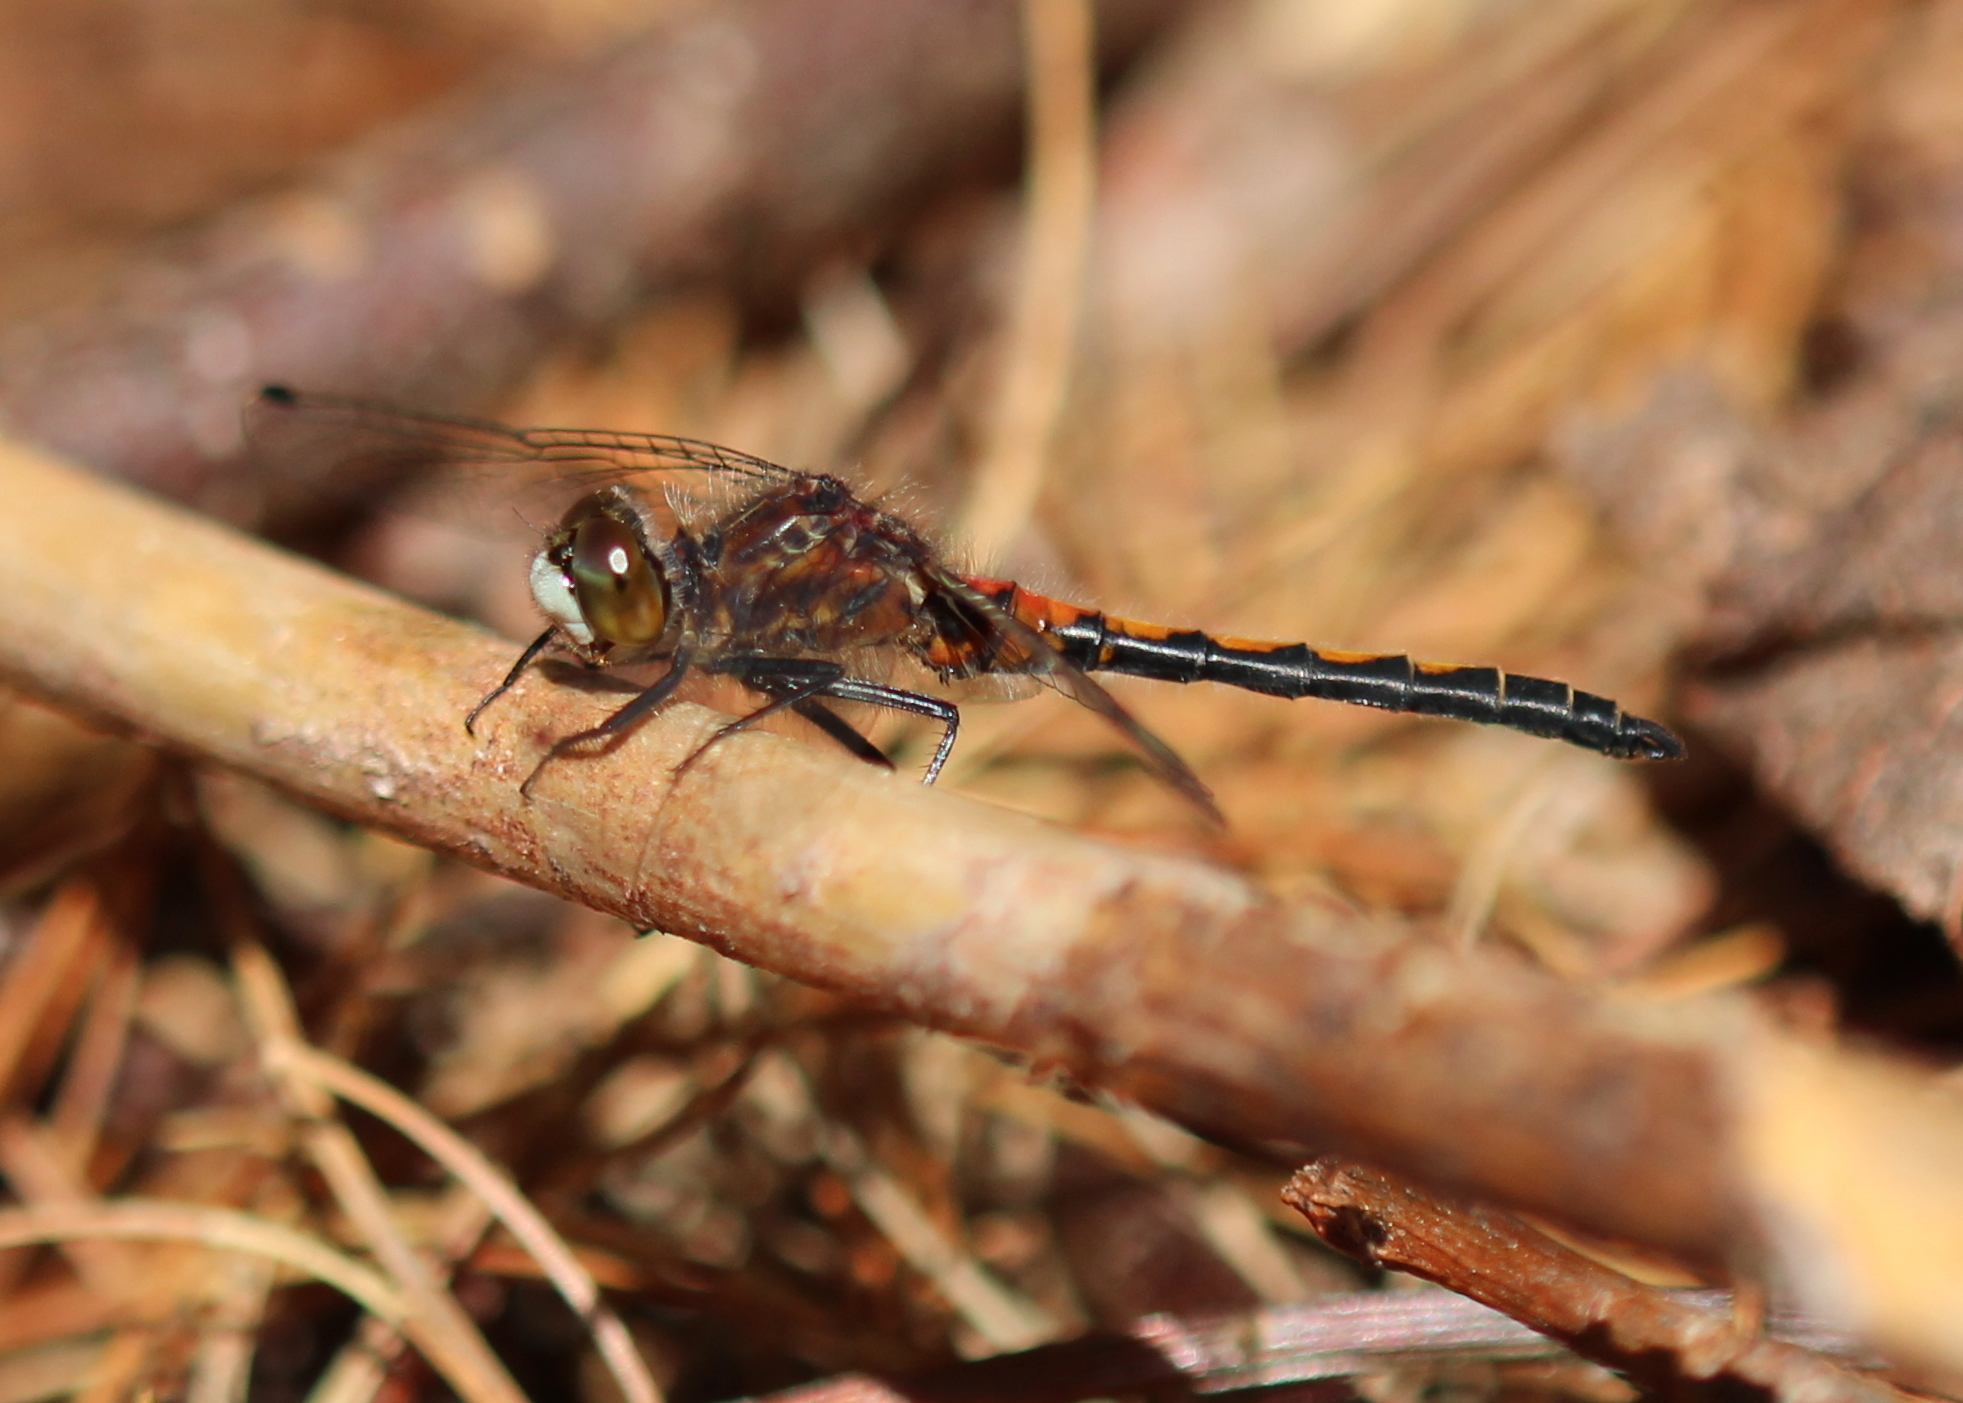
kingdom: Animalia
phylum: Arthropoda
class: Insecta
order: Odonata
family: Libellulidae
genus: Leucorrhinia
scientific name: Leucorrhinia hudsonica
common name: Hudsonian whiteface
